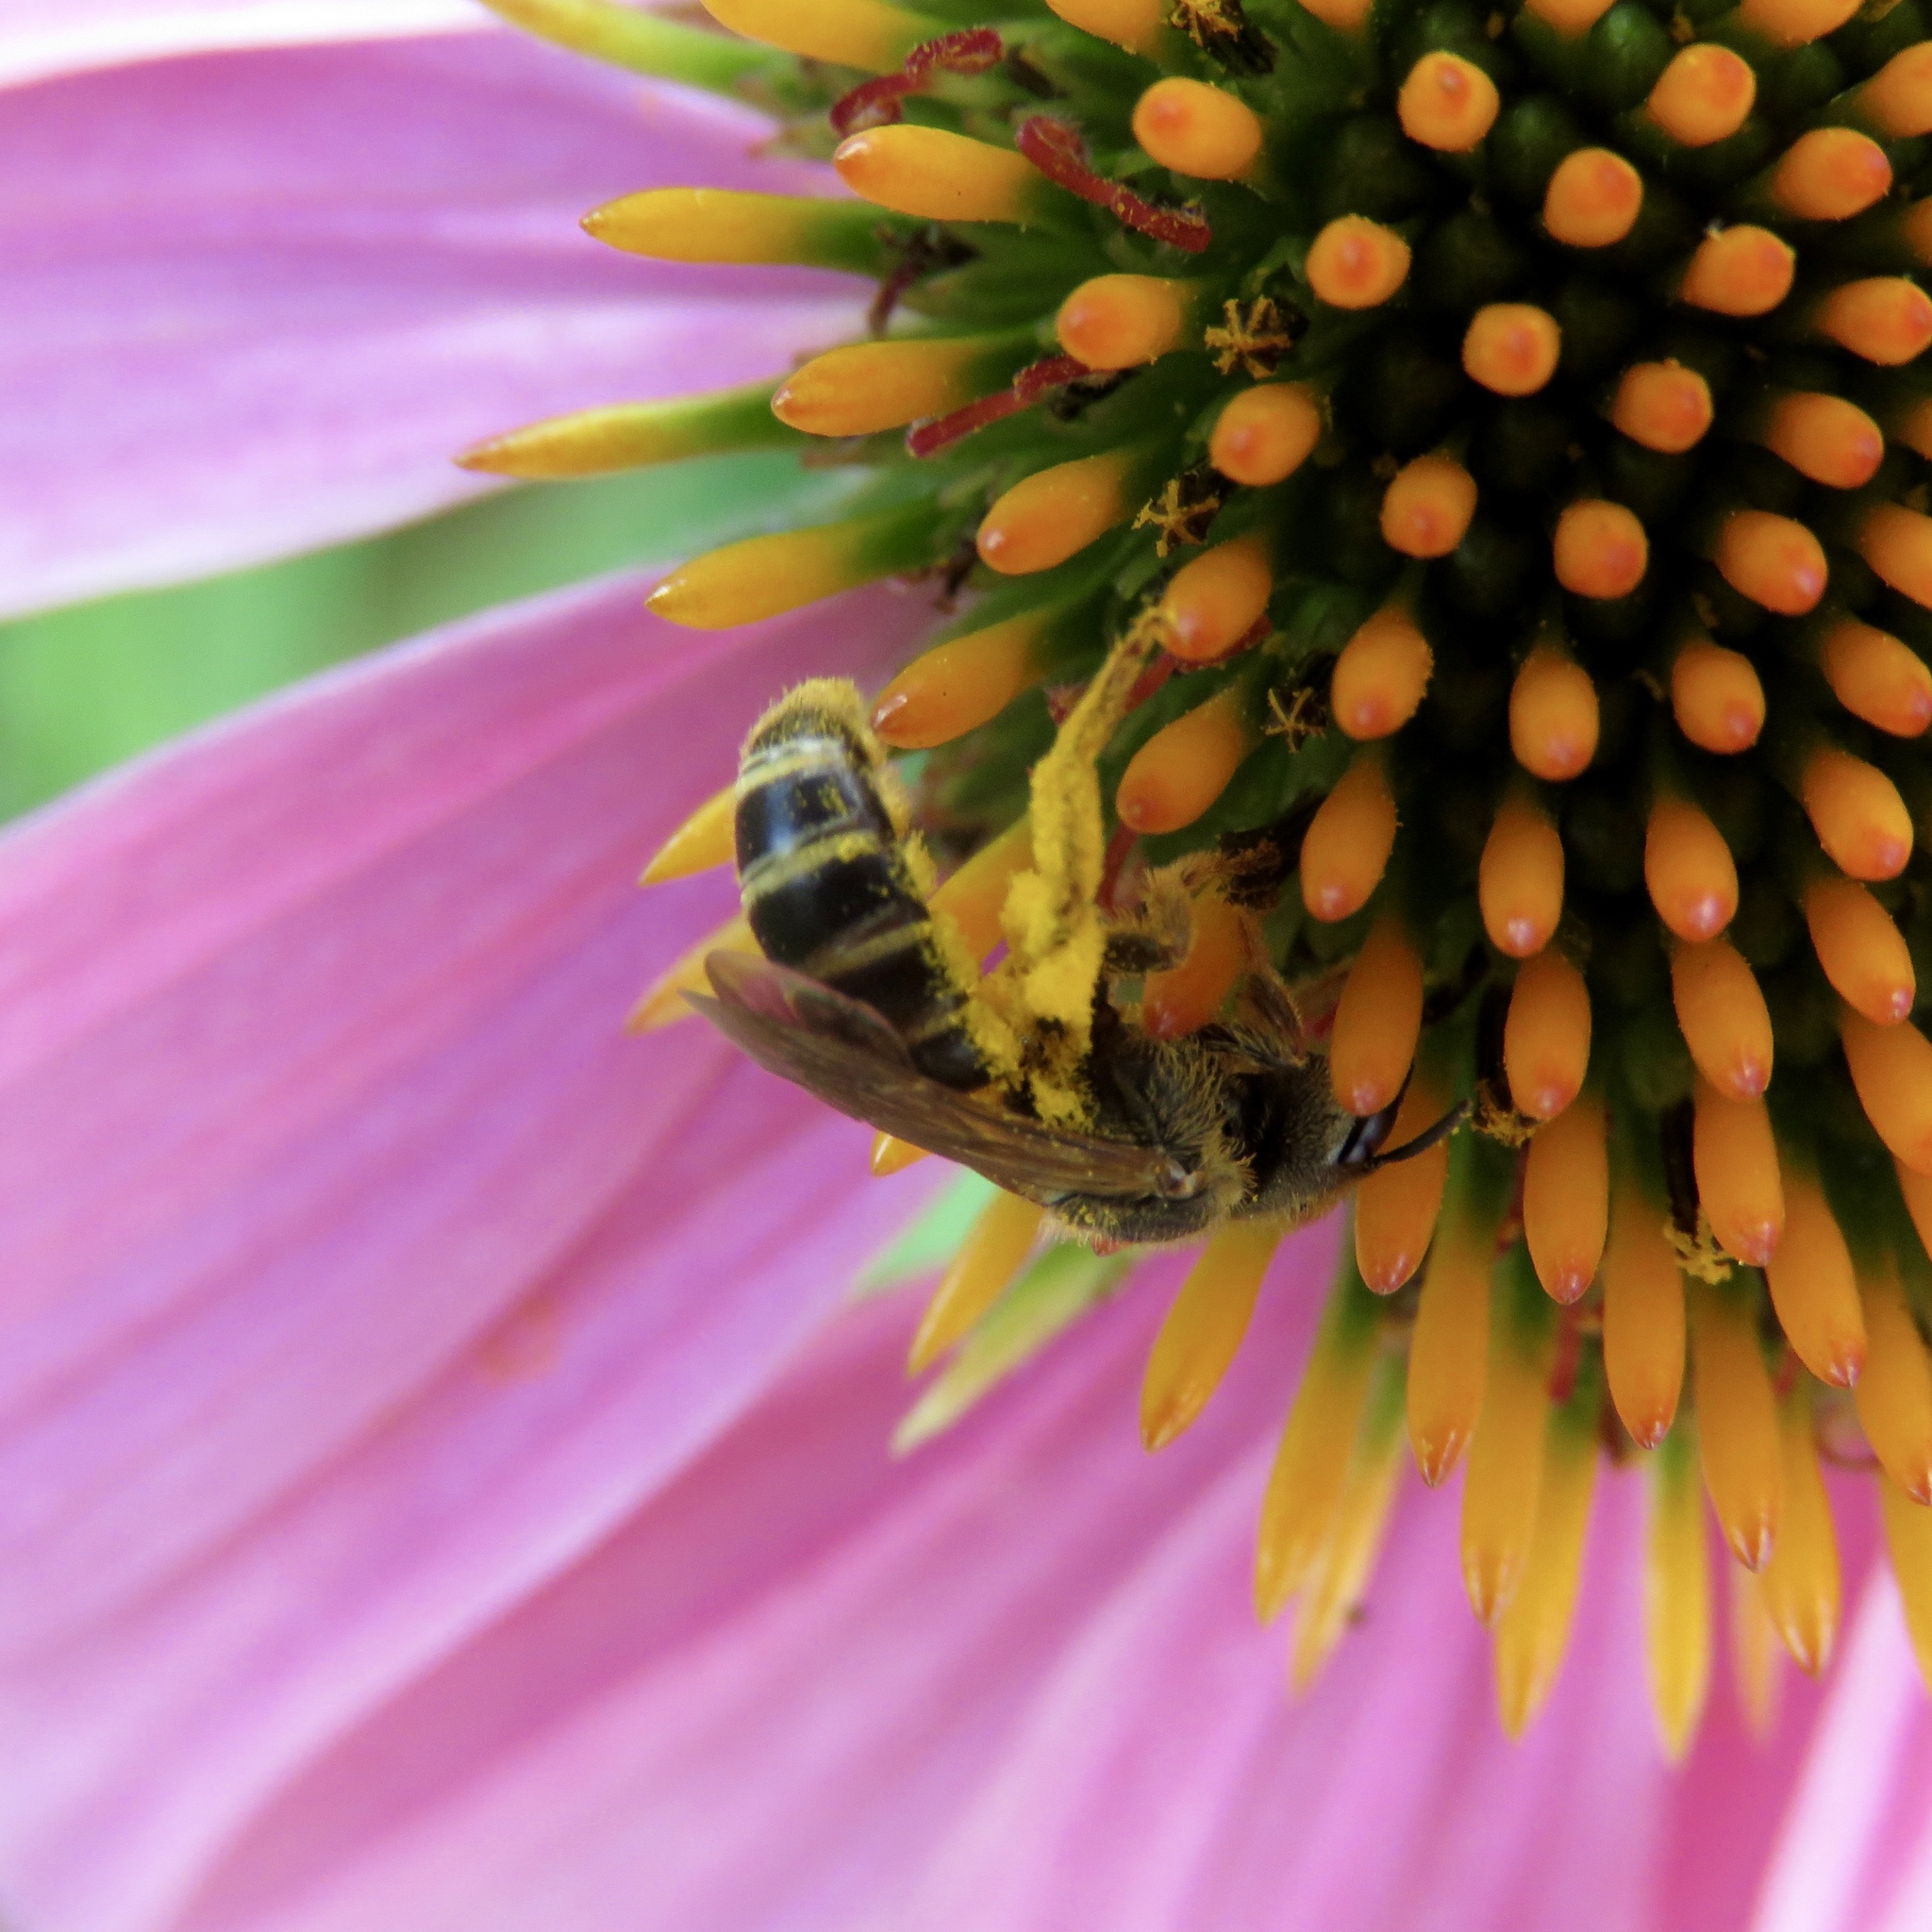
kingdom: Animalia
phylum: Arthropoda
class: Insecta
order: Hymenoptera
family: Halictidae
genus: Halictus
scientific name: Halictus ligatus
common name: Ligated furrow bee
